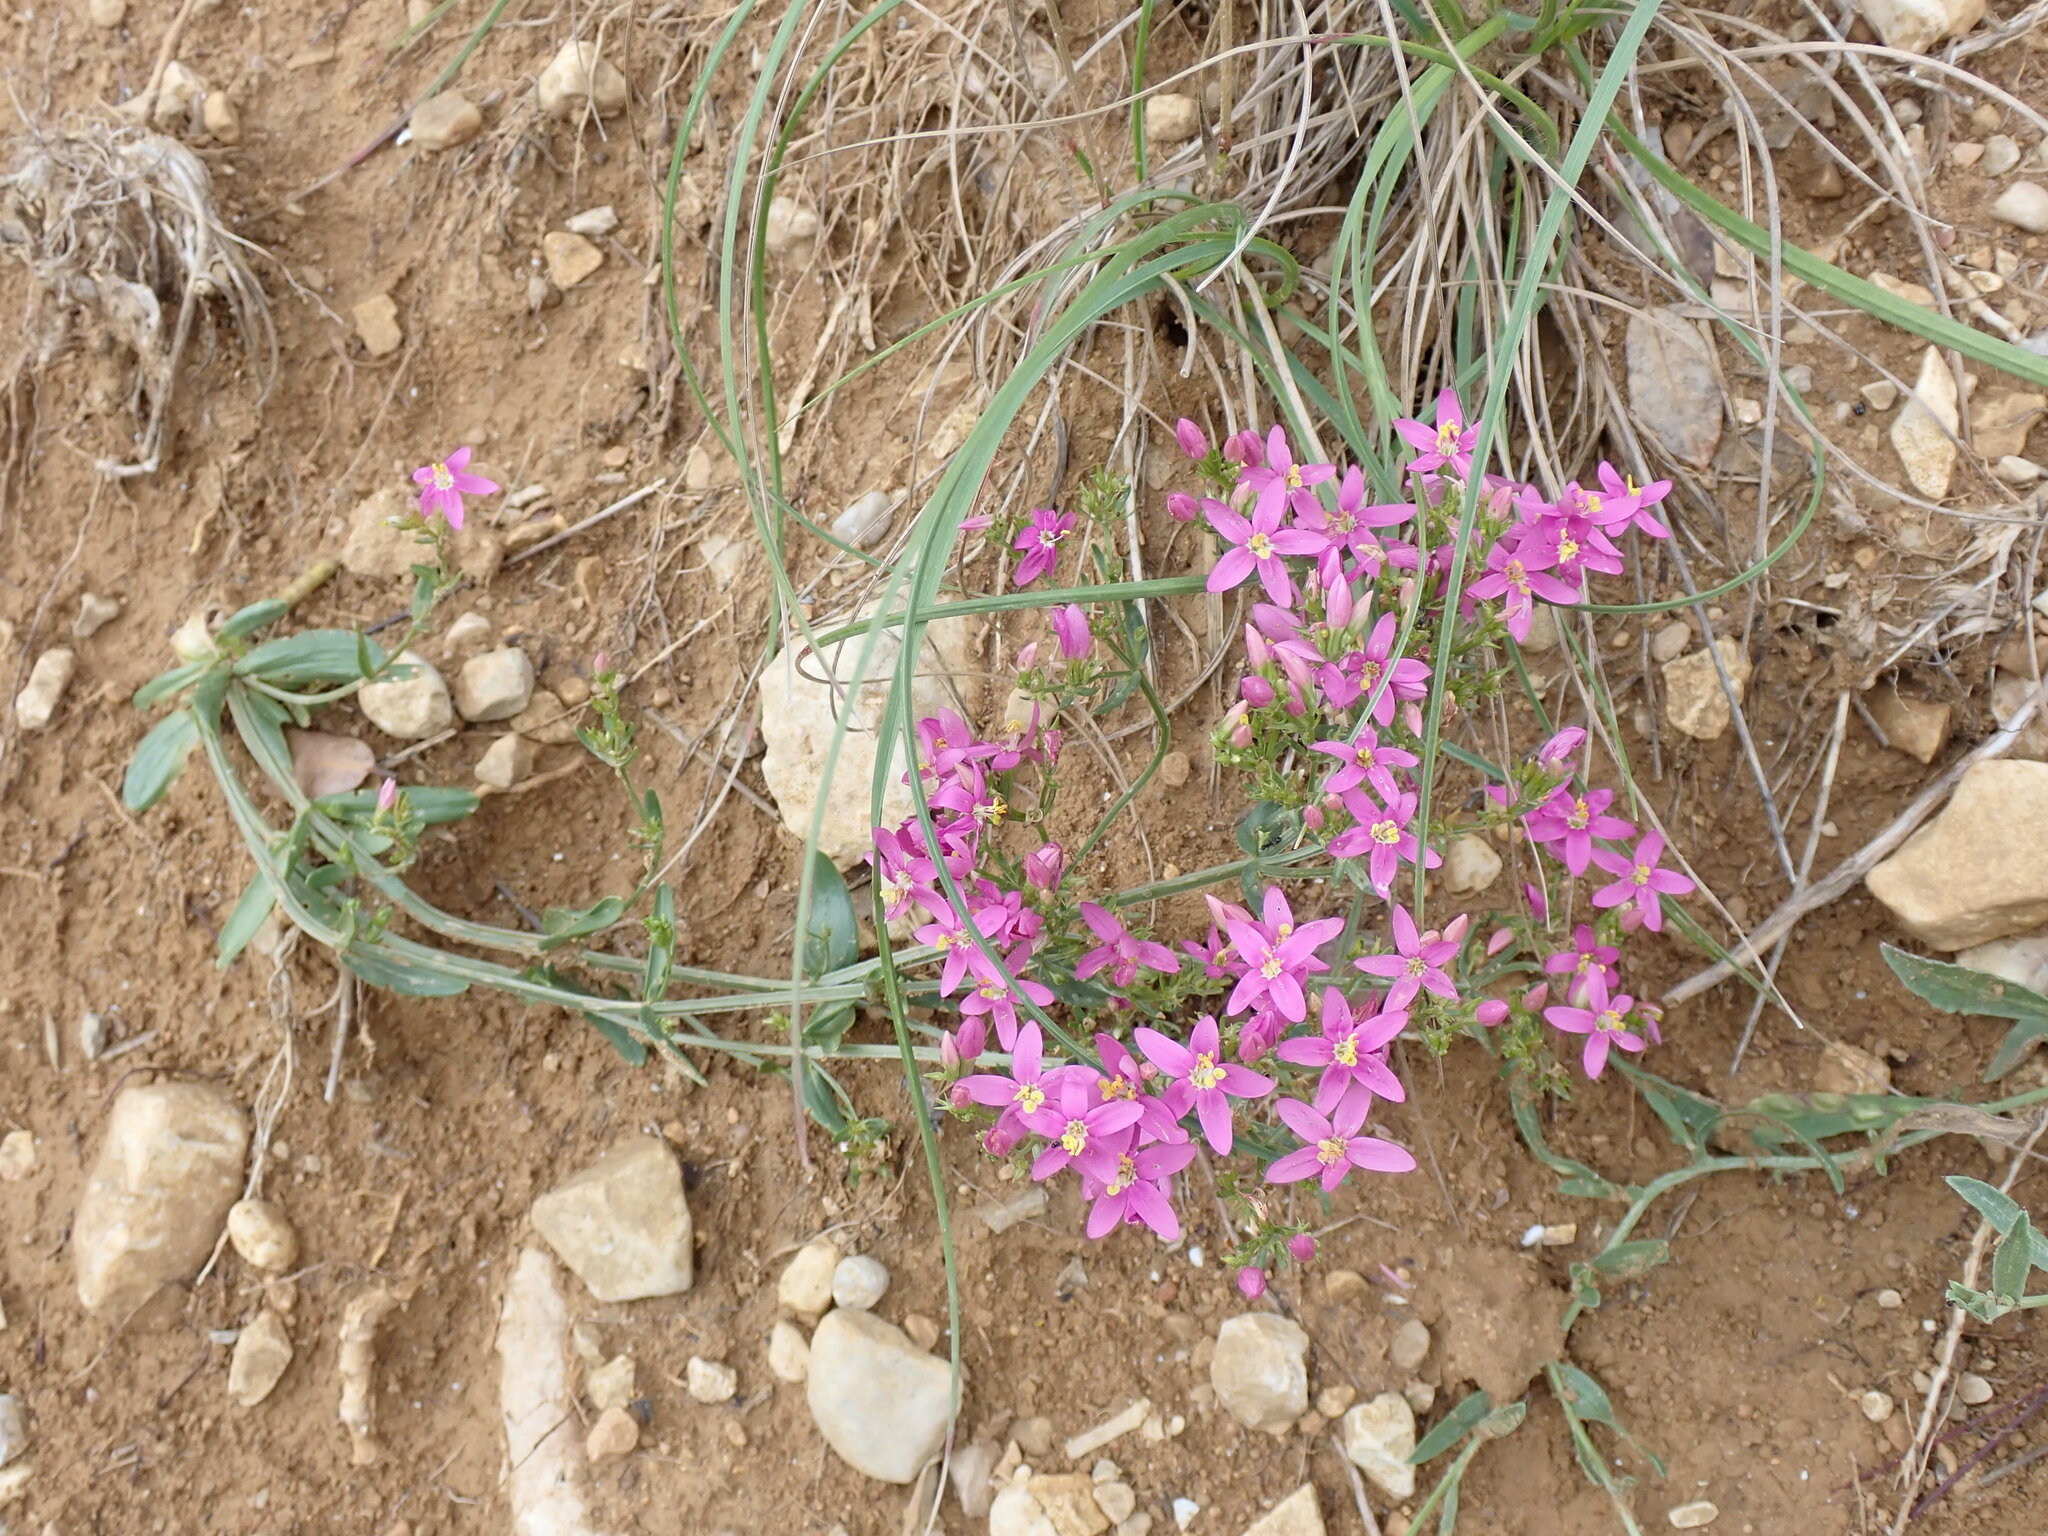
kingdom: Plantae
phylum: Tracheophyta
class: Magnoliopsida
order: Gentianales
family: Gentianaceae
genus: Centaurium
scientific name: Centaurium erythraea
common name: Common centaury
